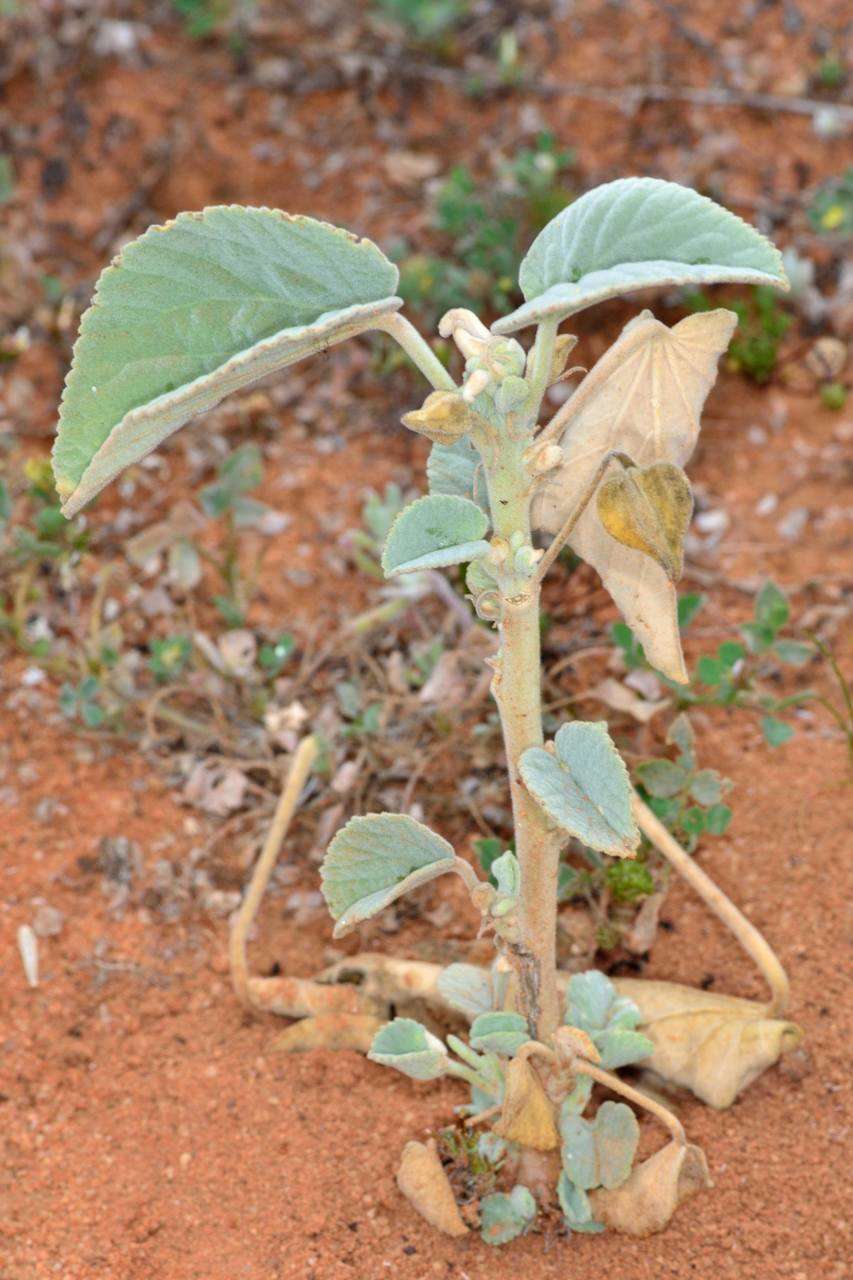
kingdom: Plantae
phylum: Tracheophyta
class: Magnoliopsida
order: Malvales
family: Malvaceae
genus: Abutilon
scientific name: Abutilon otocarpum
